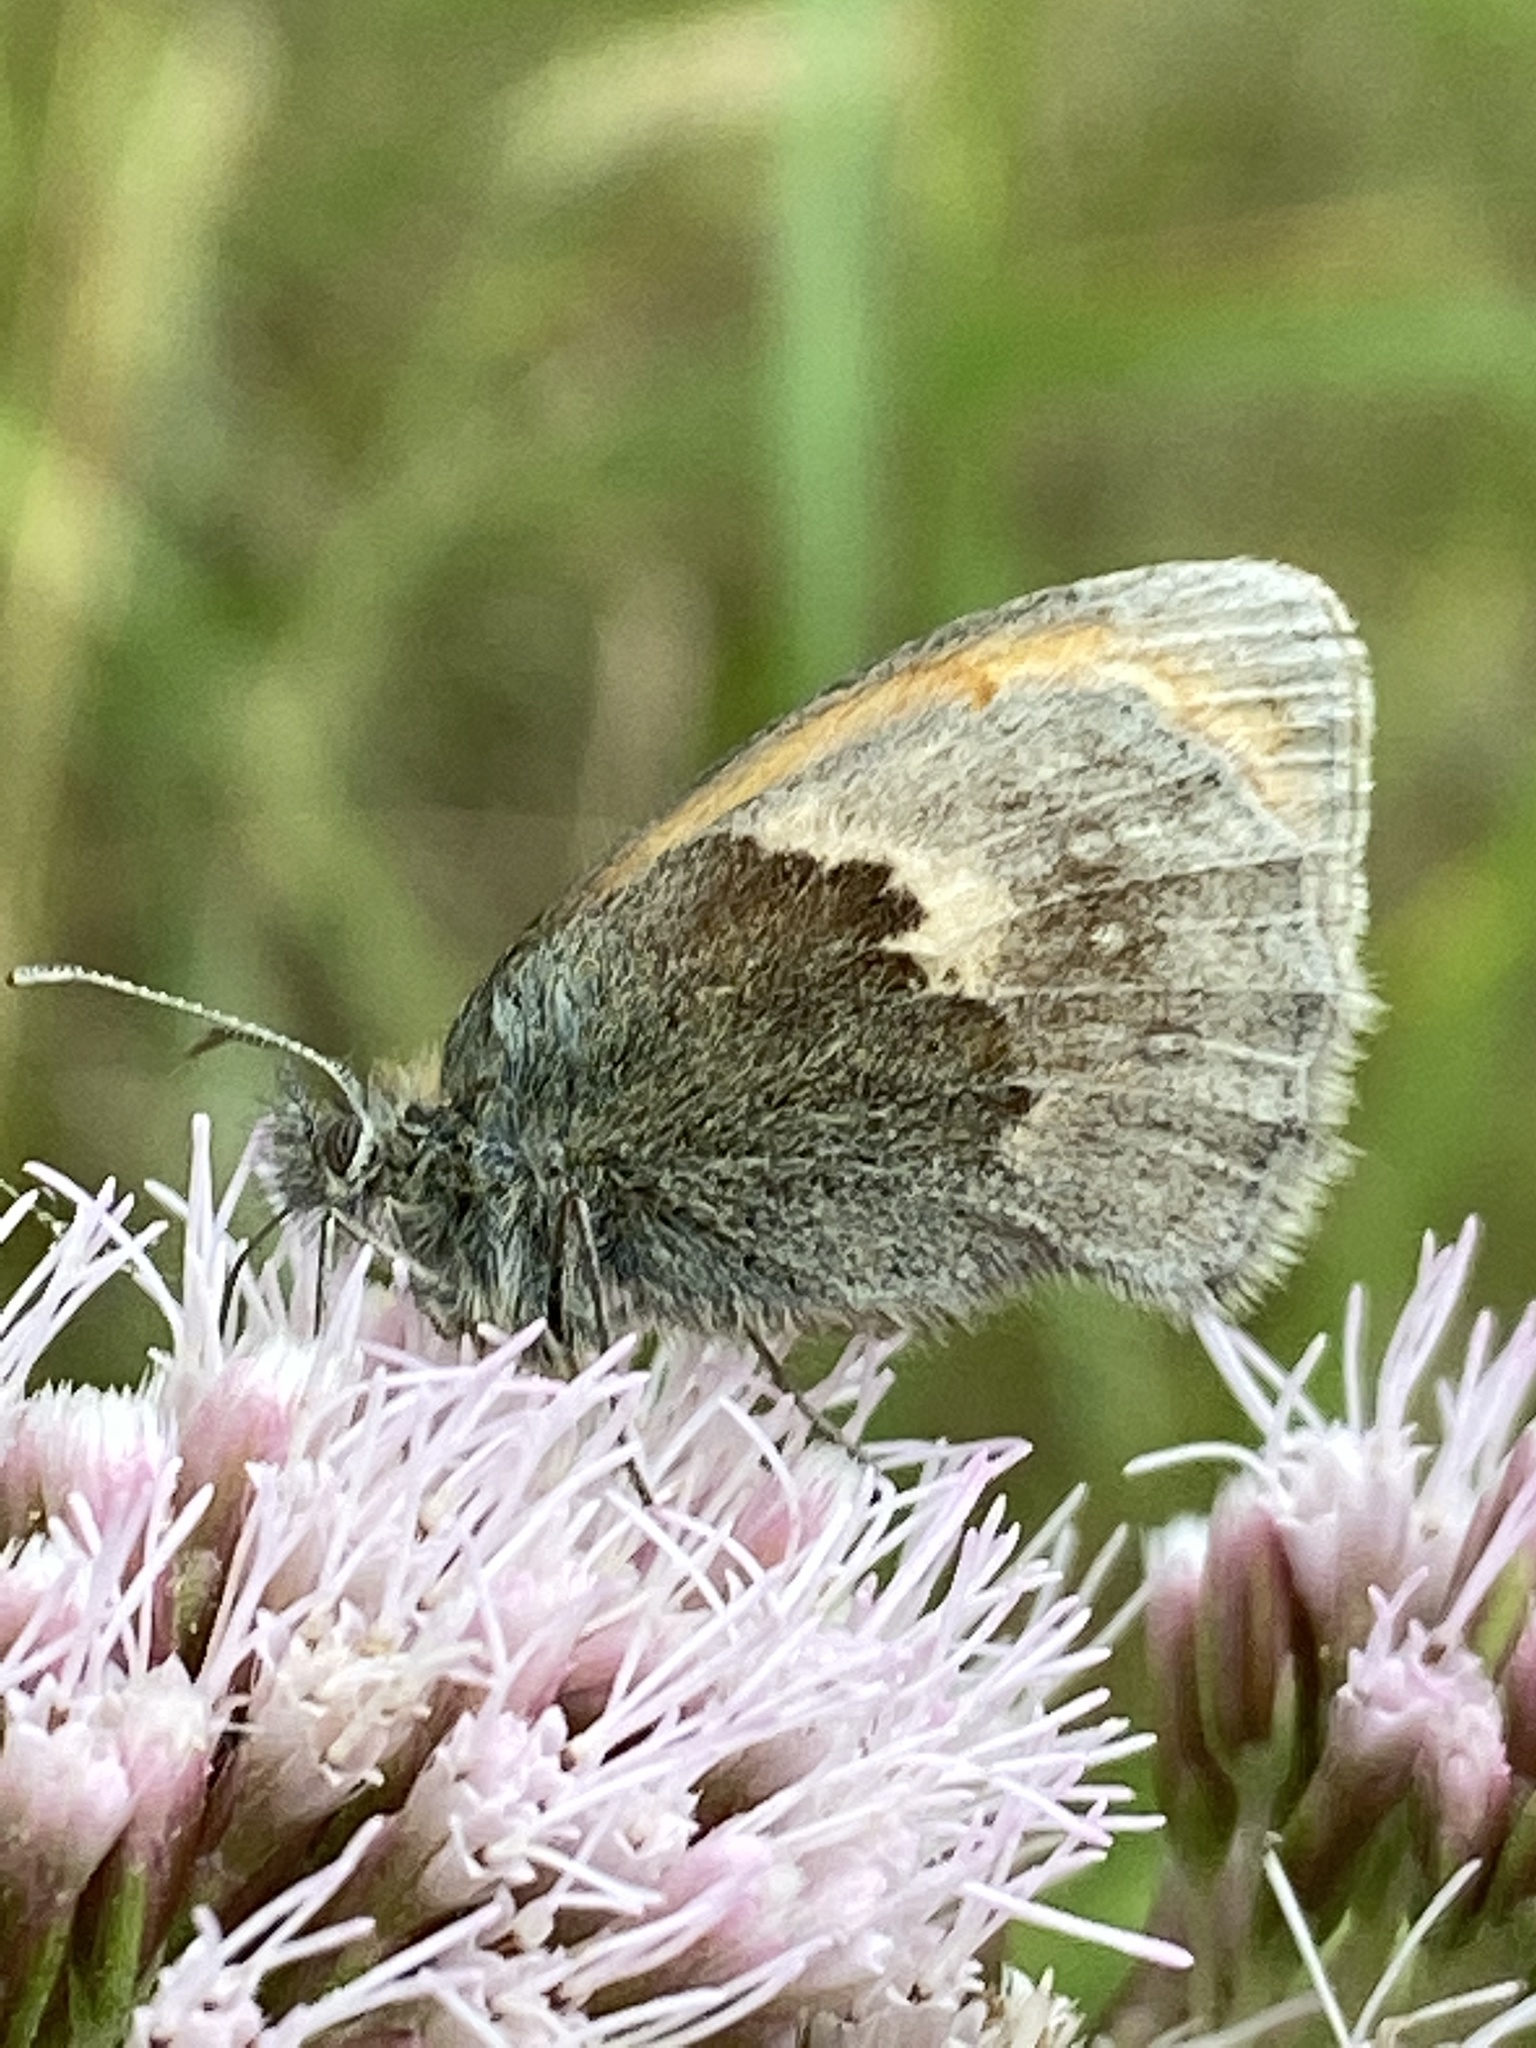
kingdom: Animalia
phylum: Arthropoda
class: Insecta
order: Lepidoptera
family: Nymphalidae
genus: Coenonympha
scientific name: Coenonympha pamphilus
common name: Small heath
